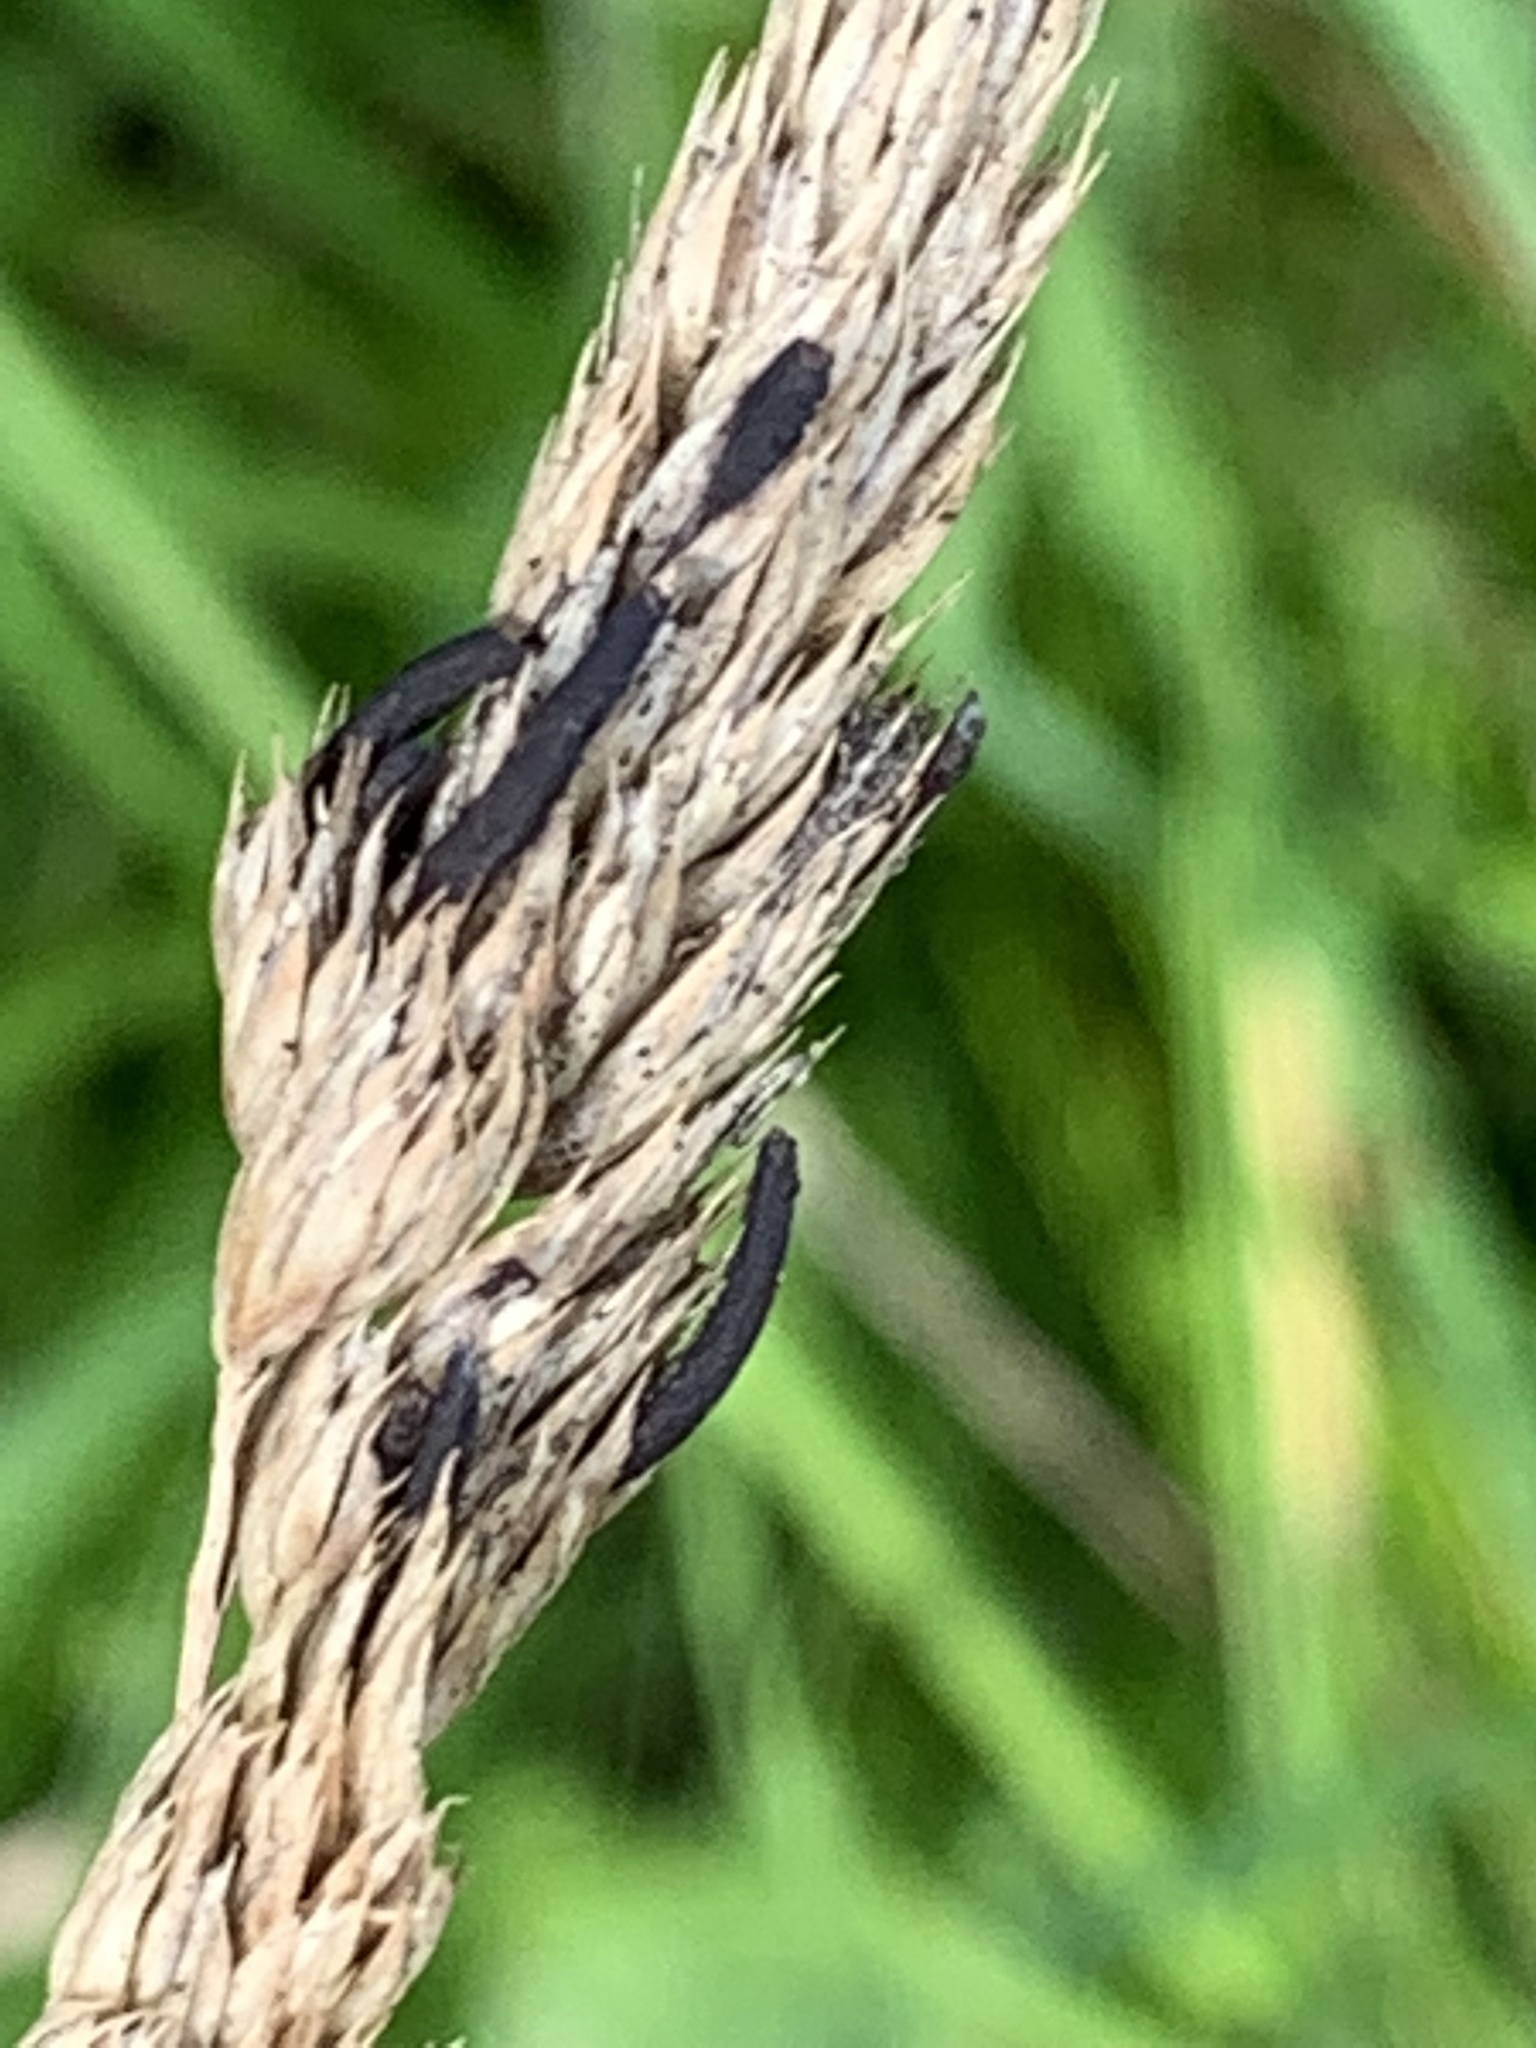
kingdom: Fungi
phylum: Ascomycota
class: Sordariomycetes
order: Hypocreales
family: Clavicipitaceae
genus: Claviceps
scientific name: Claviceps purpurea
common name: Rye ergot
